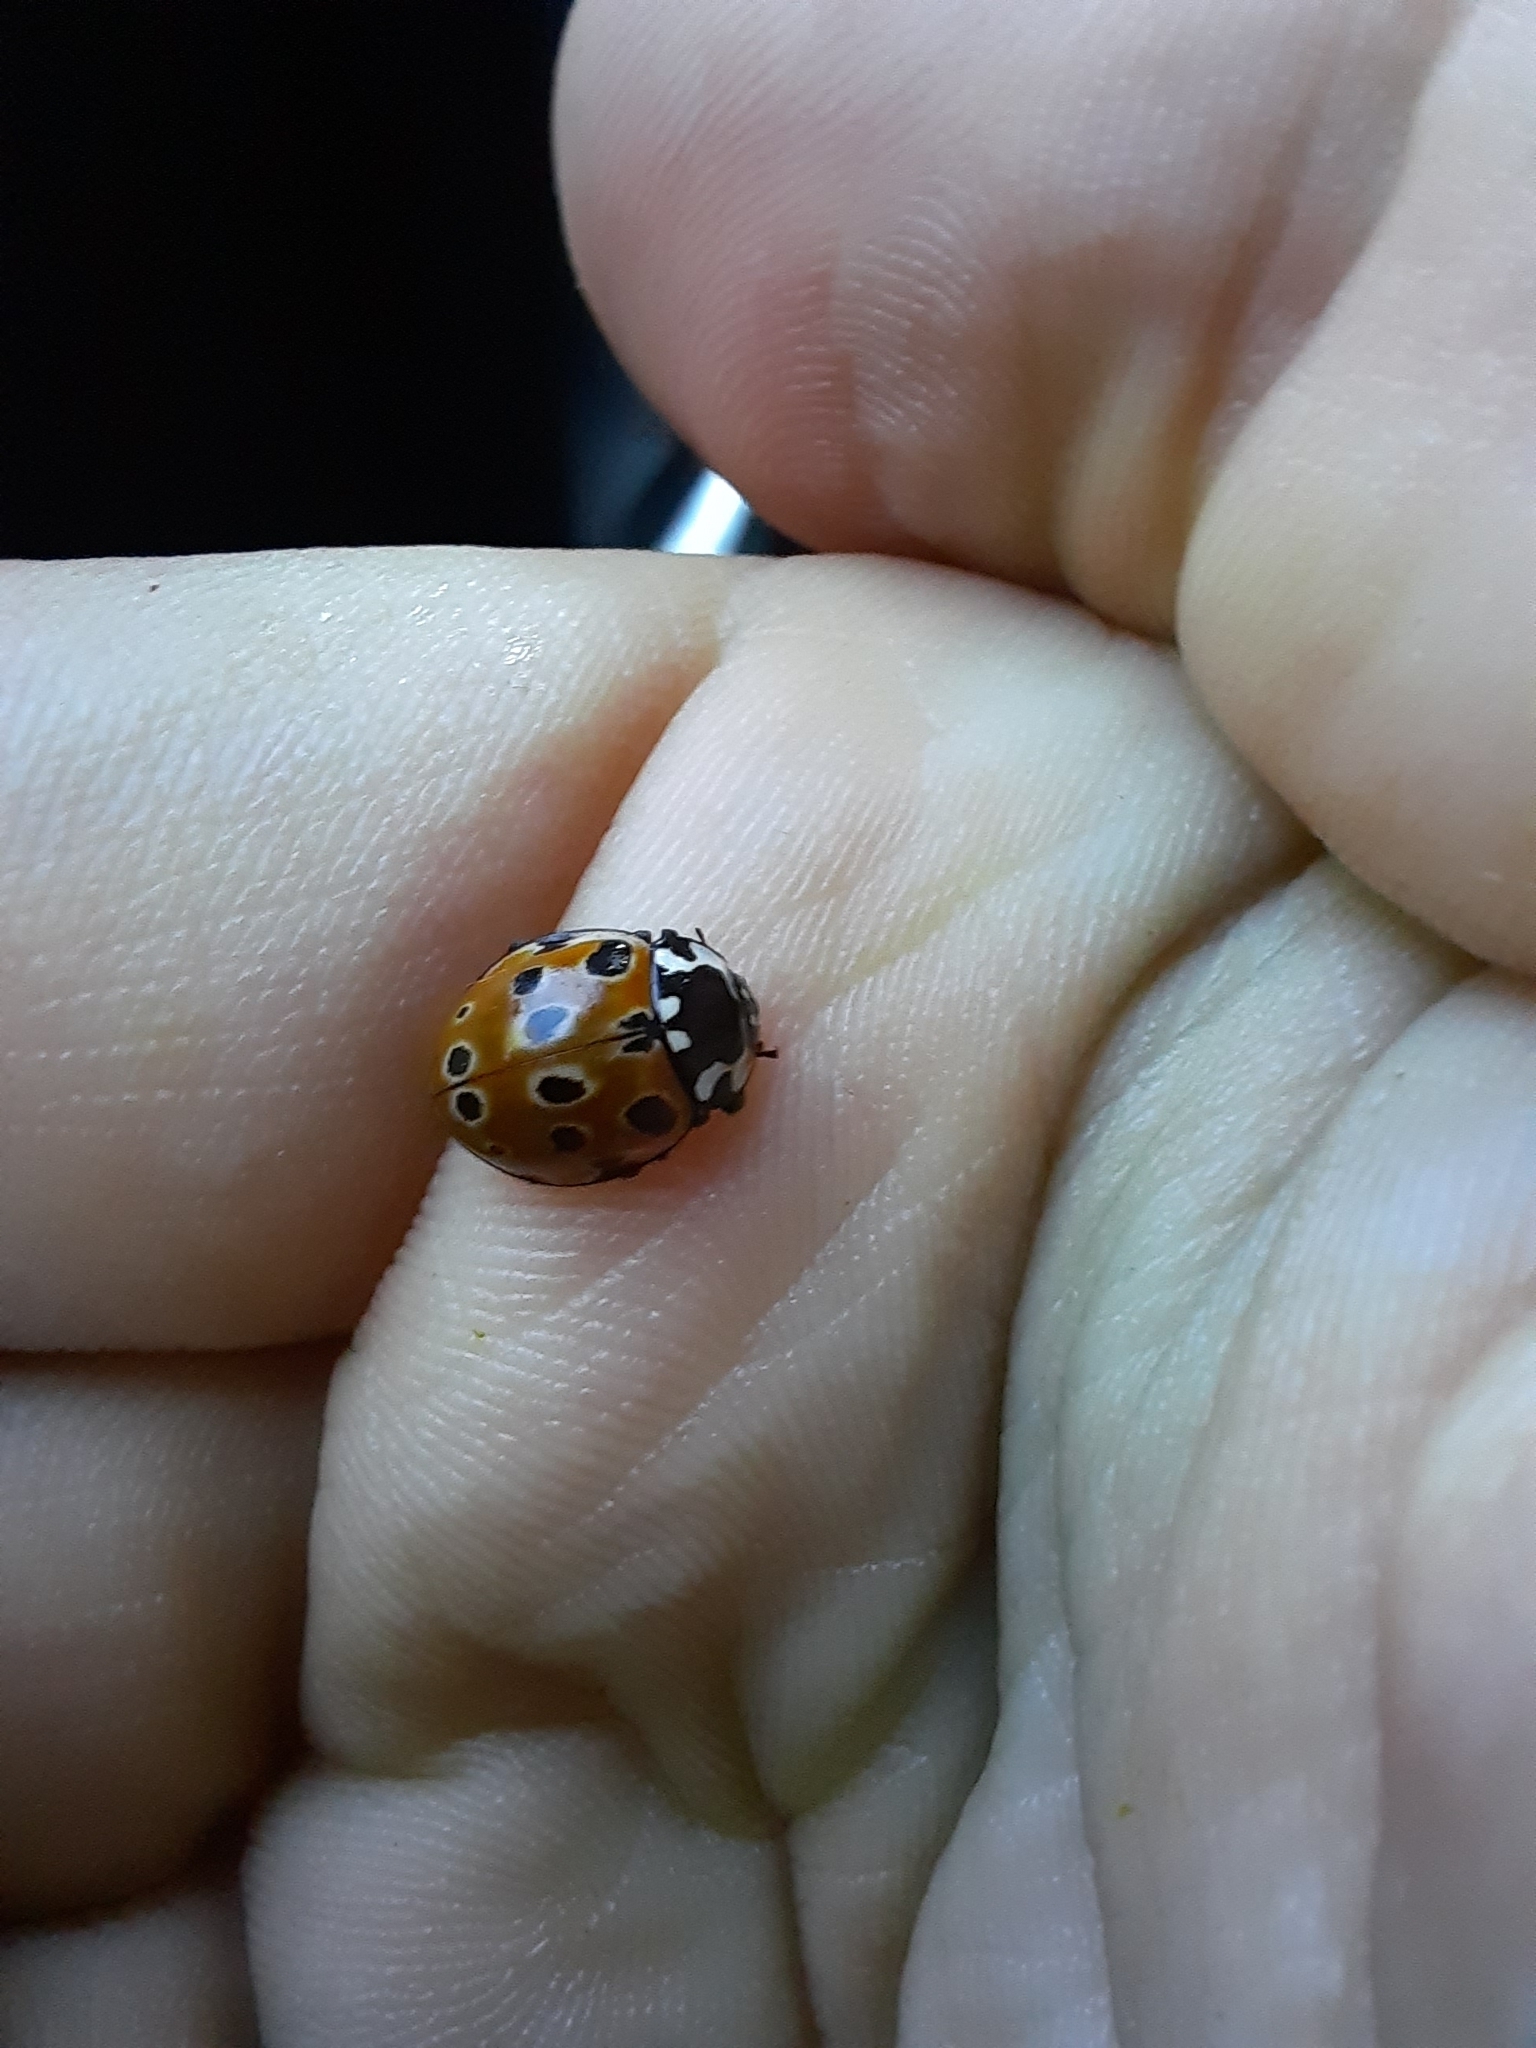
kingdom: Animalia
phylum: Arthropoda
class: Insecta
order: Coleoptera
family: Coccinellidae
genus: Anatis
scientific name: Anatis ocellata
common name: Eyed ladybird
